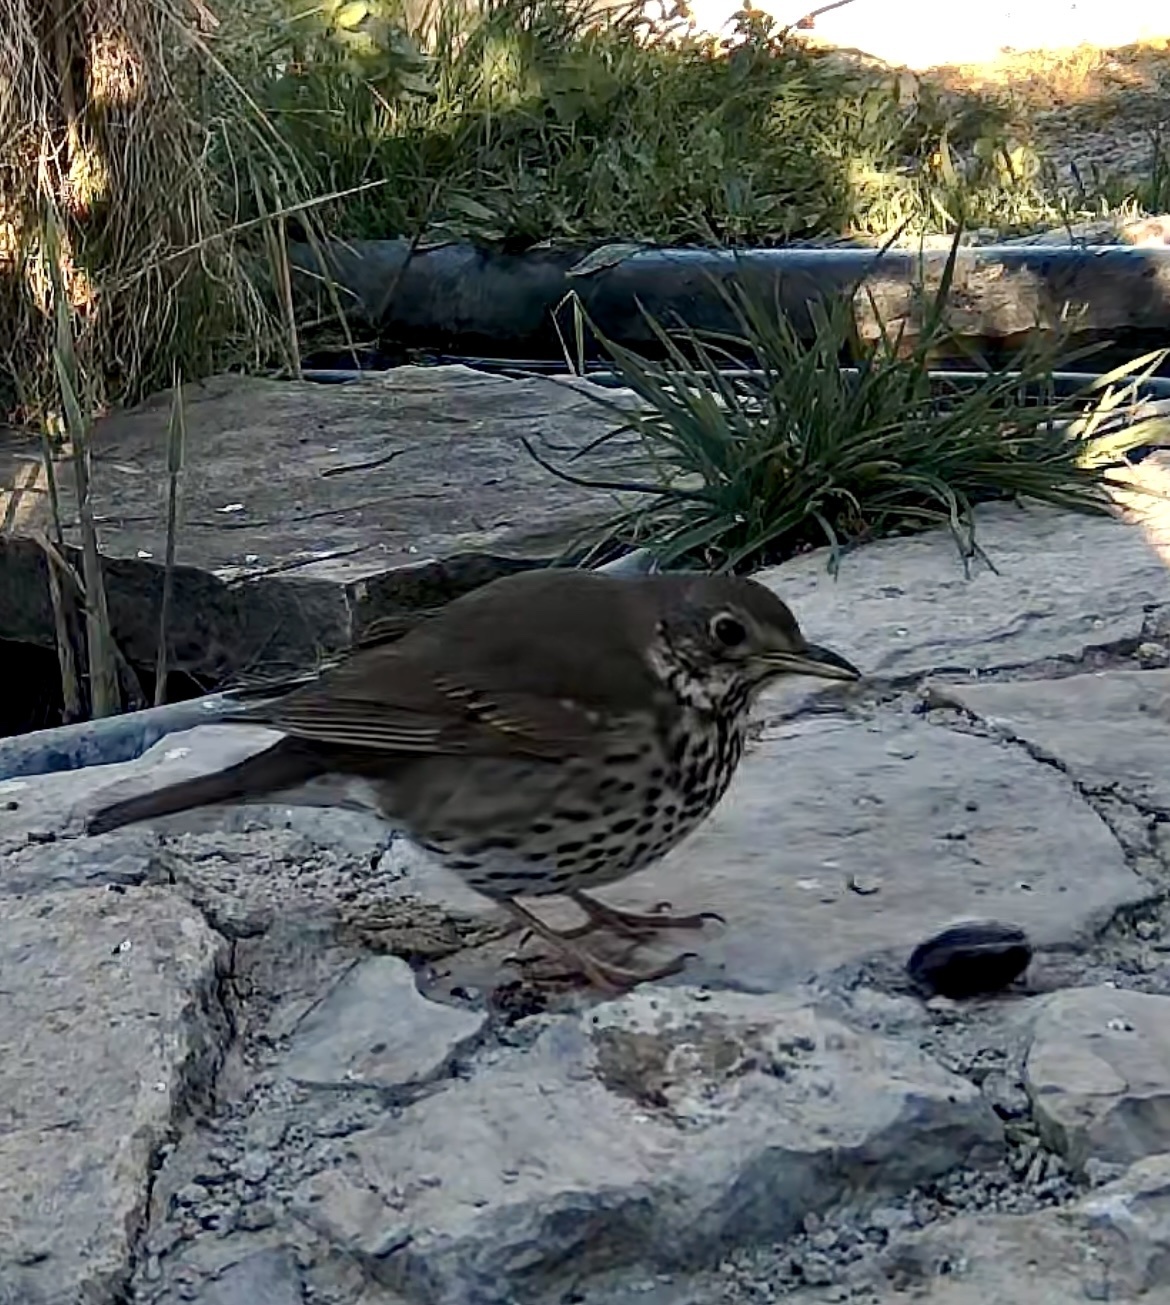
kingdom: Animalia
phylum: Chordata
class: Aves
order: Passeriformes
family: Turdidae
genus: Turdus
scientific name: Turdus philomelos
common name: Song thrush
